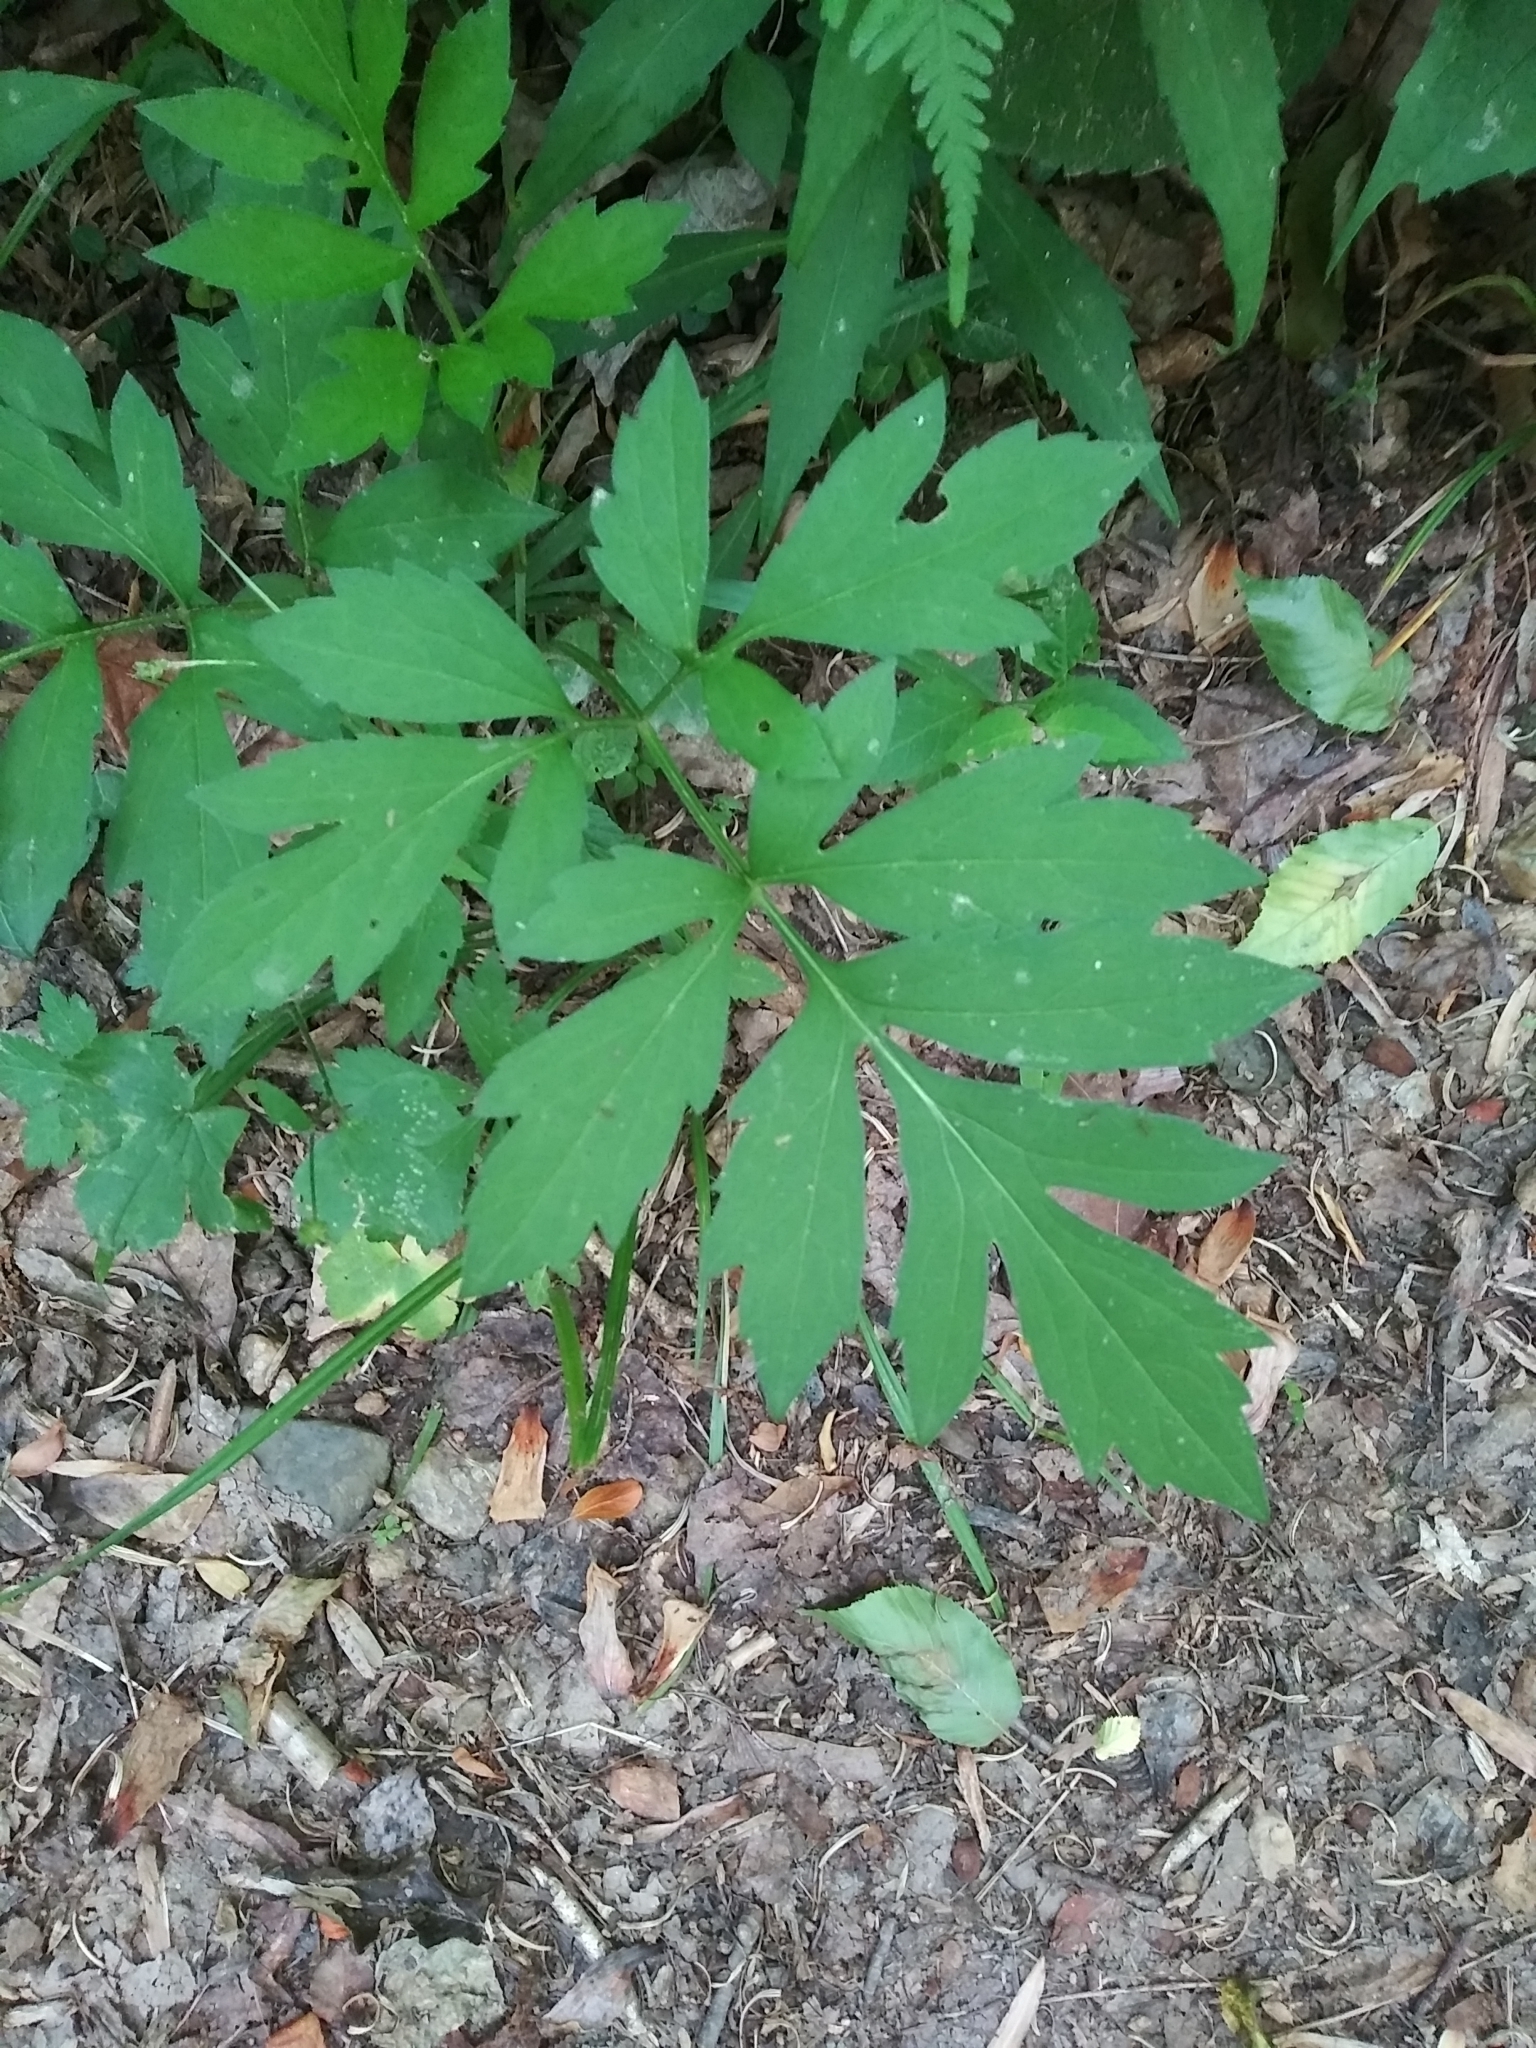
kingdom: Plantae
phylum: Tracheophyta
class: Magnoliopsida
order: Asterales
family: Asteraceae
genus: Rudbeckia
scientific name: Rudbeckia laciniata
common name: Coneflower
